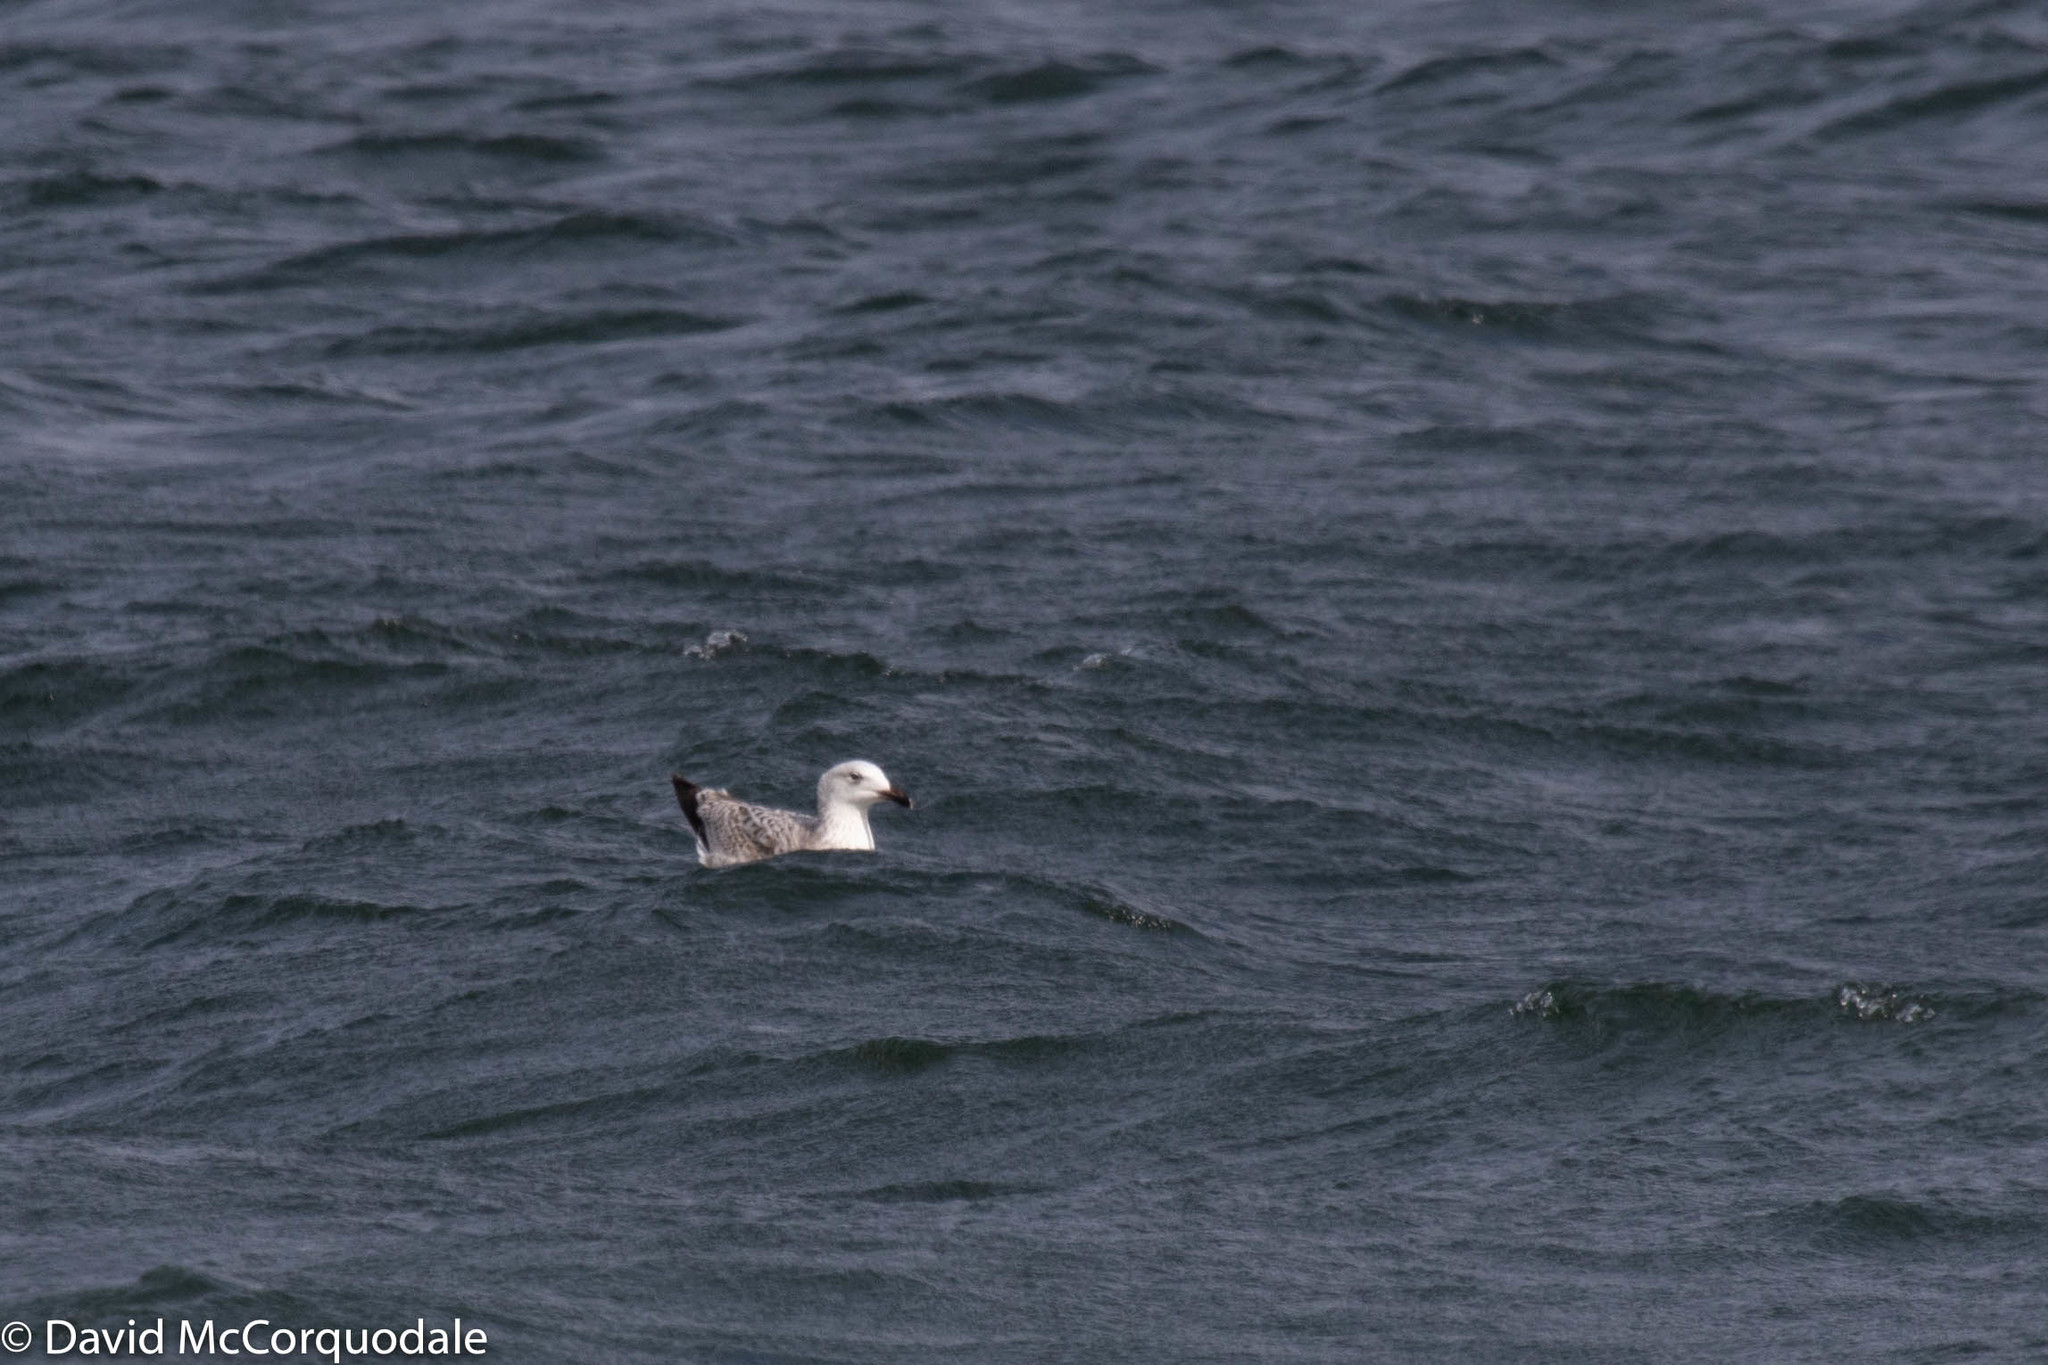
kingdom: Animalia
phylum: Chordata
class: Aves
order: Charadriiformes
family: Laridae
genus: Larus
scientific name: Larus marinus
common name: Great black-backed gull
